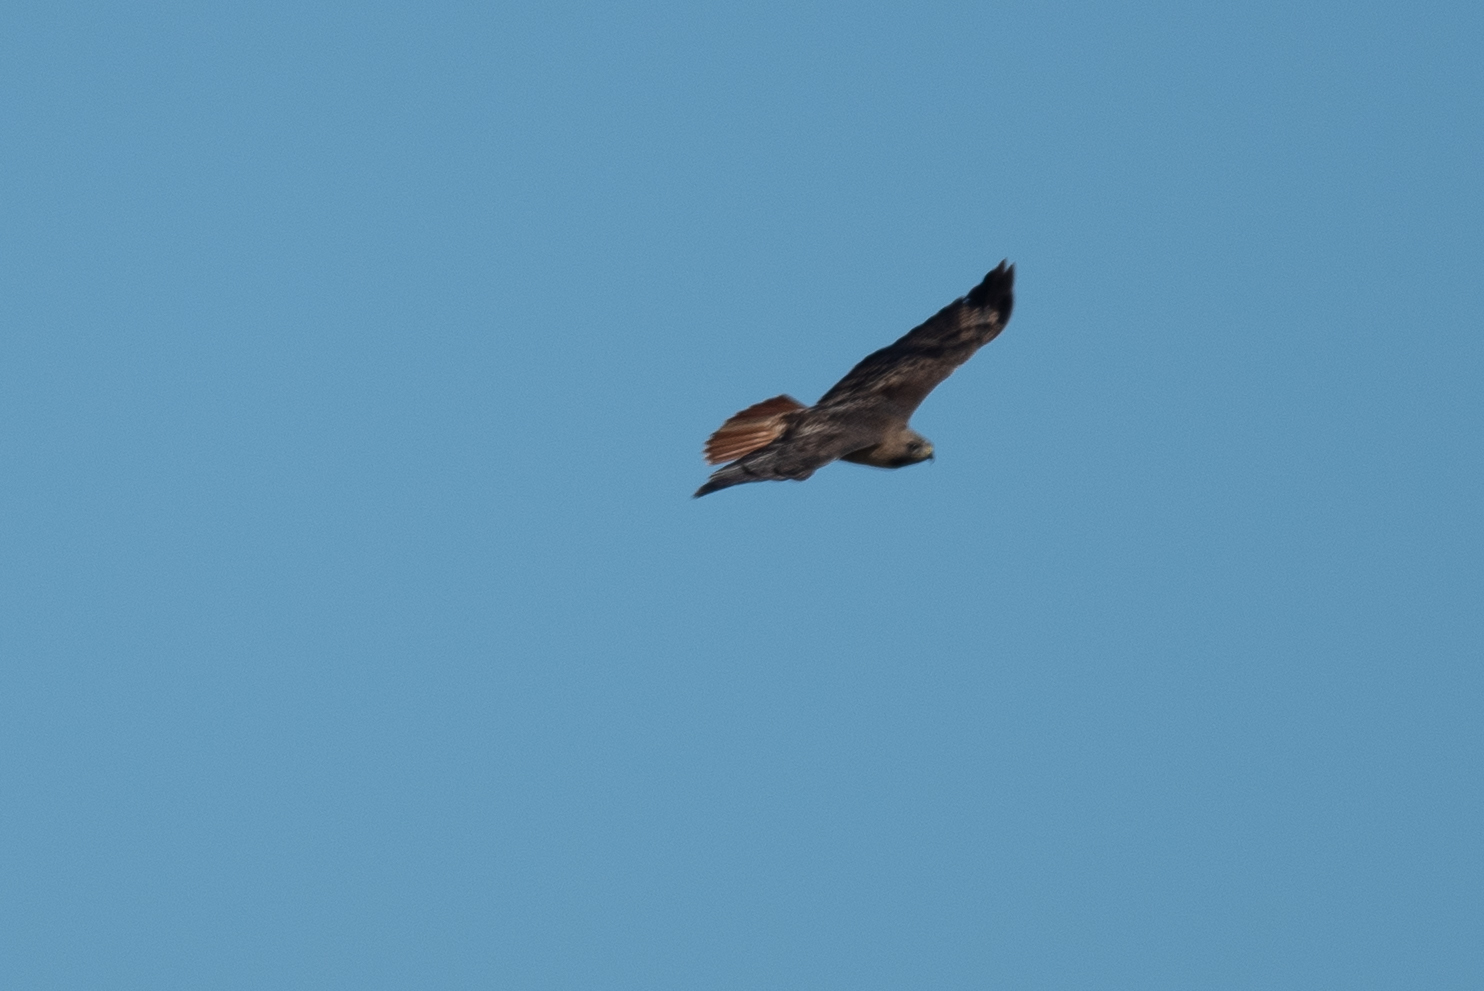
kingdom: Animalia
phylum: Chordata
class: Aves
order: Accipitriformes
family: Accipitridae
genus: Buteo
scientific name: Buteo jamaicensis
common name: Red-tailed hawk
